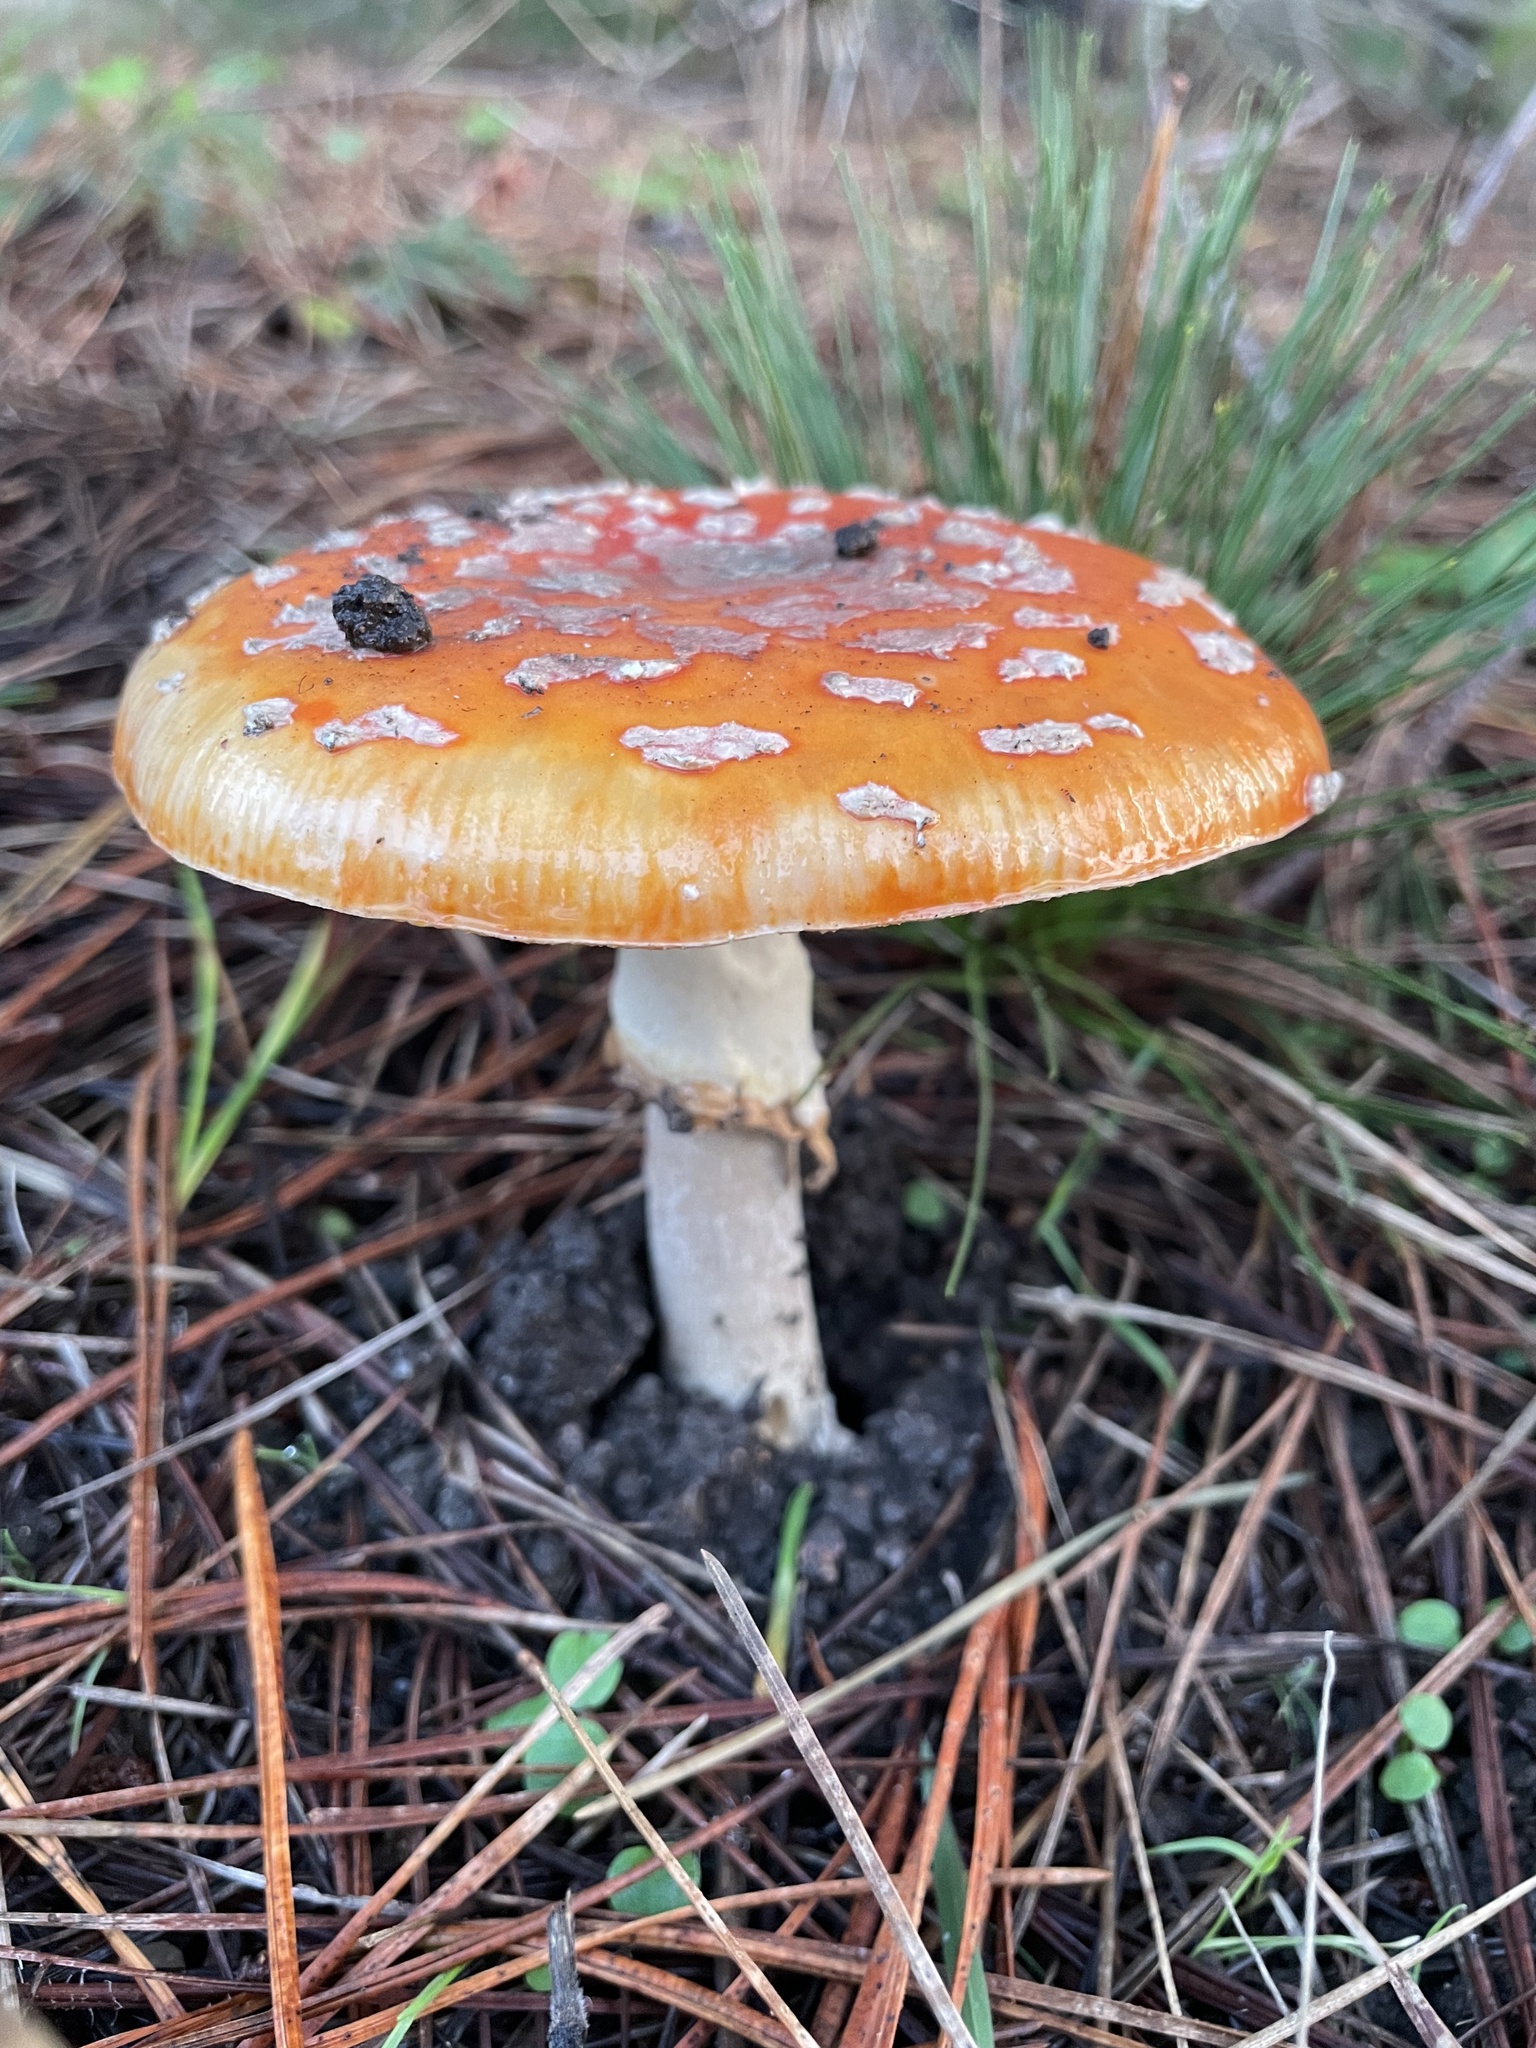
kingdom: Fungi
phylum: Basidiomycota
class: Agaricomycetes
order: Agaricales
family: Amanitaceae
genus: Amanita
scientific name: Amanita muscaria
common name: Fly agaric
